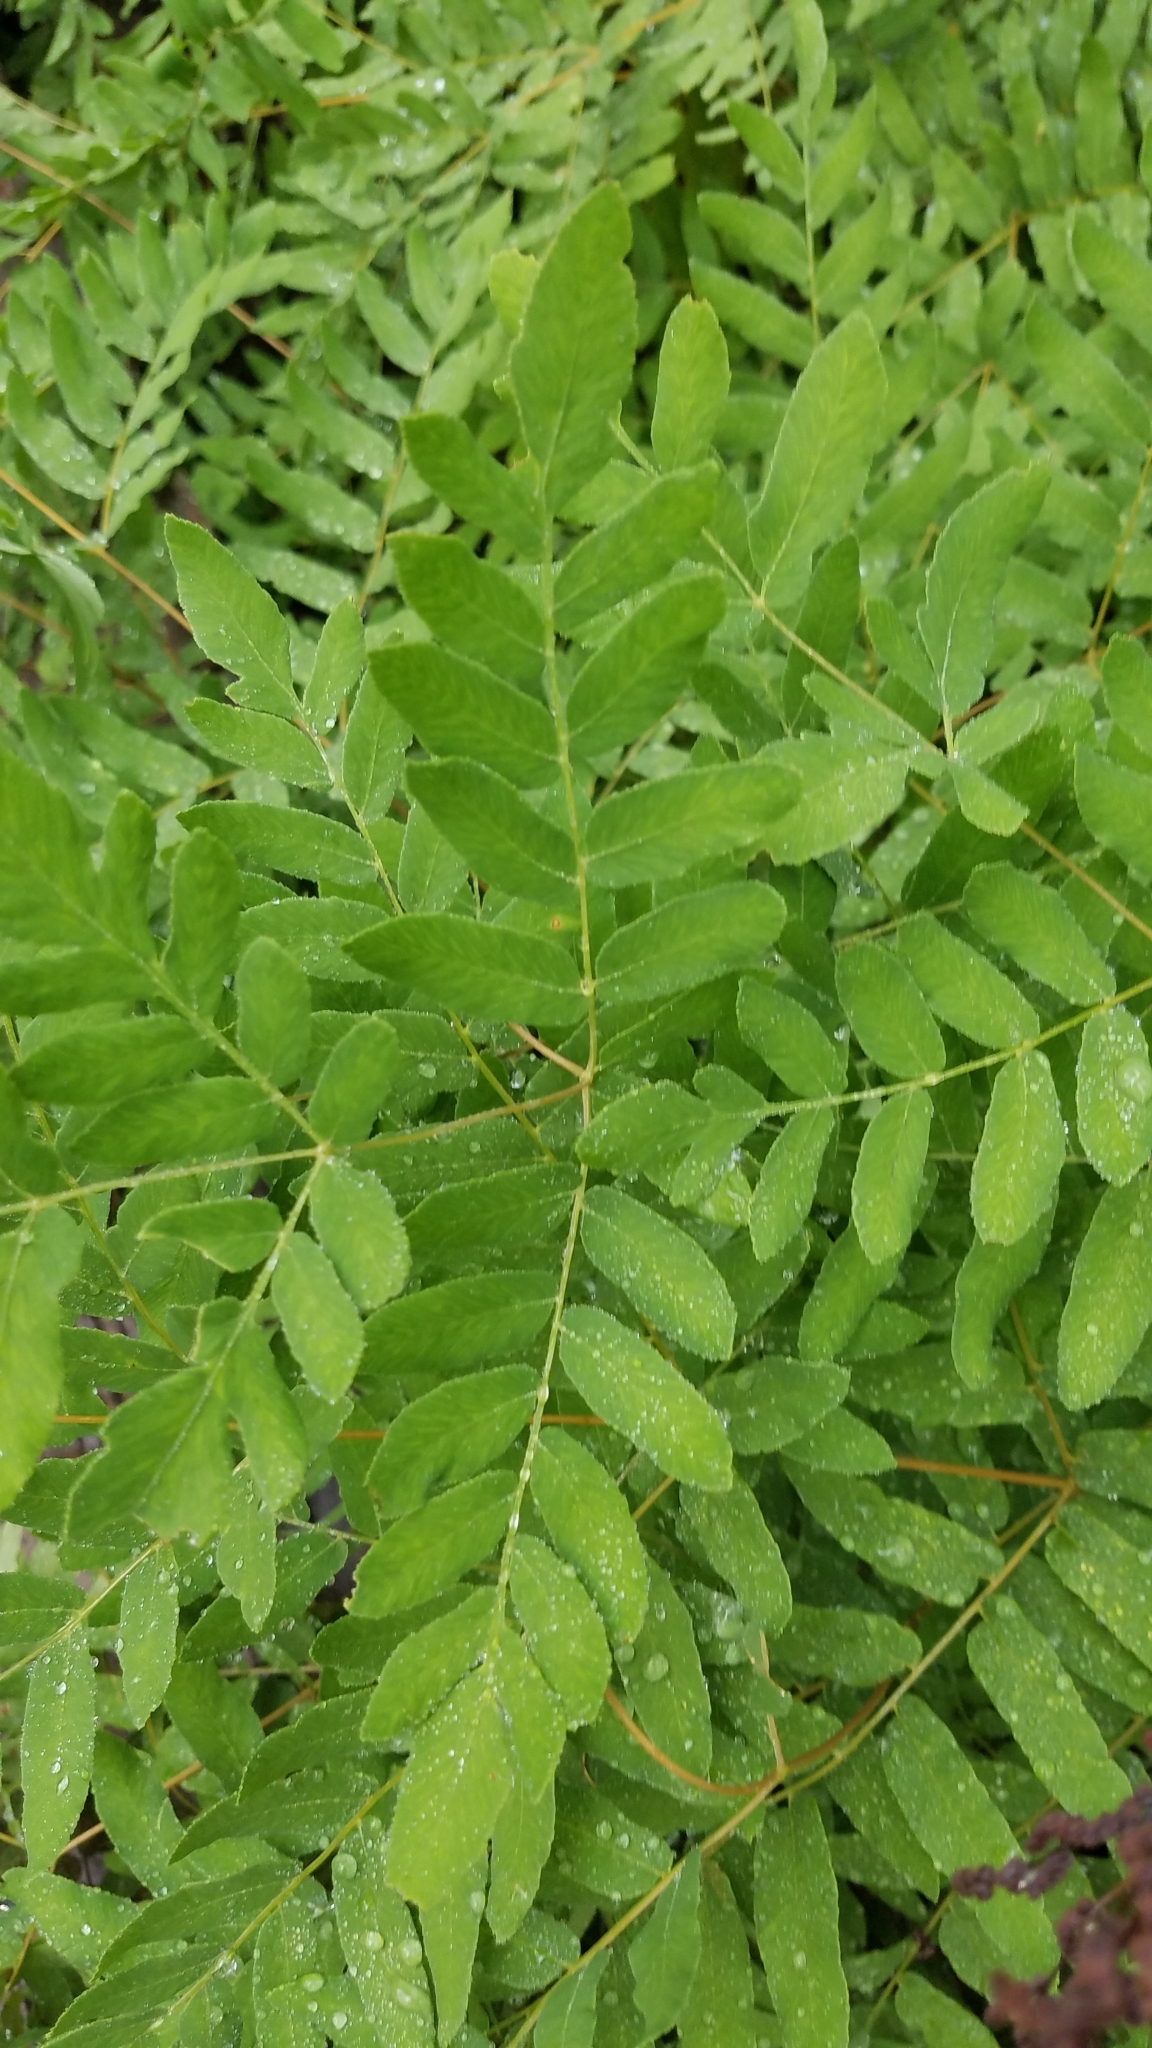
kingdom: Plantae
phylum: Tracheophyta
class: Polypodiopsida
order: Osmundales
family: Osmundaceae
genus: Osmunda
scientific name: Osmunda spectabilis
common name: American royal fern
